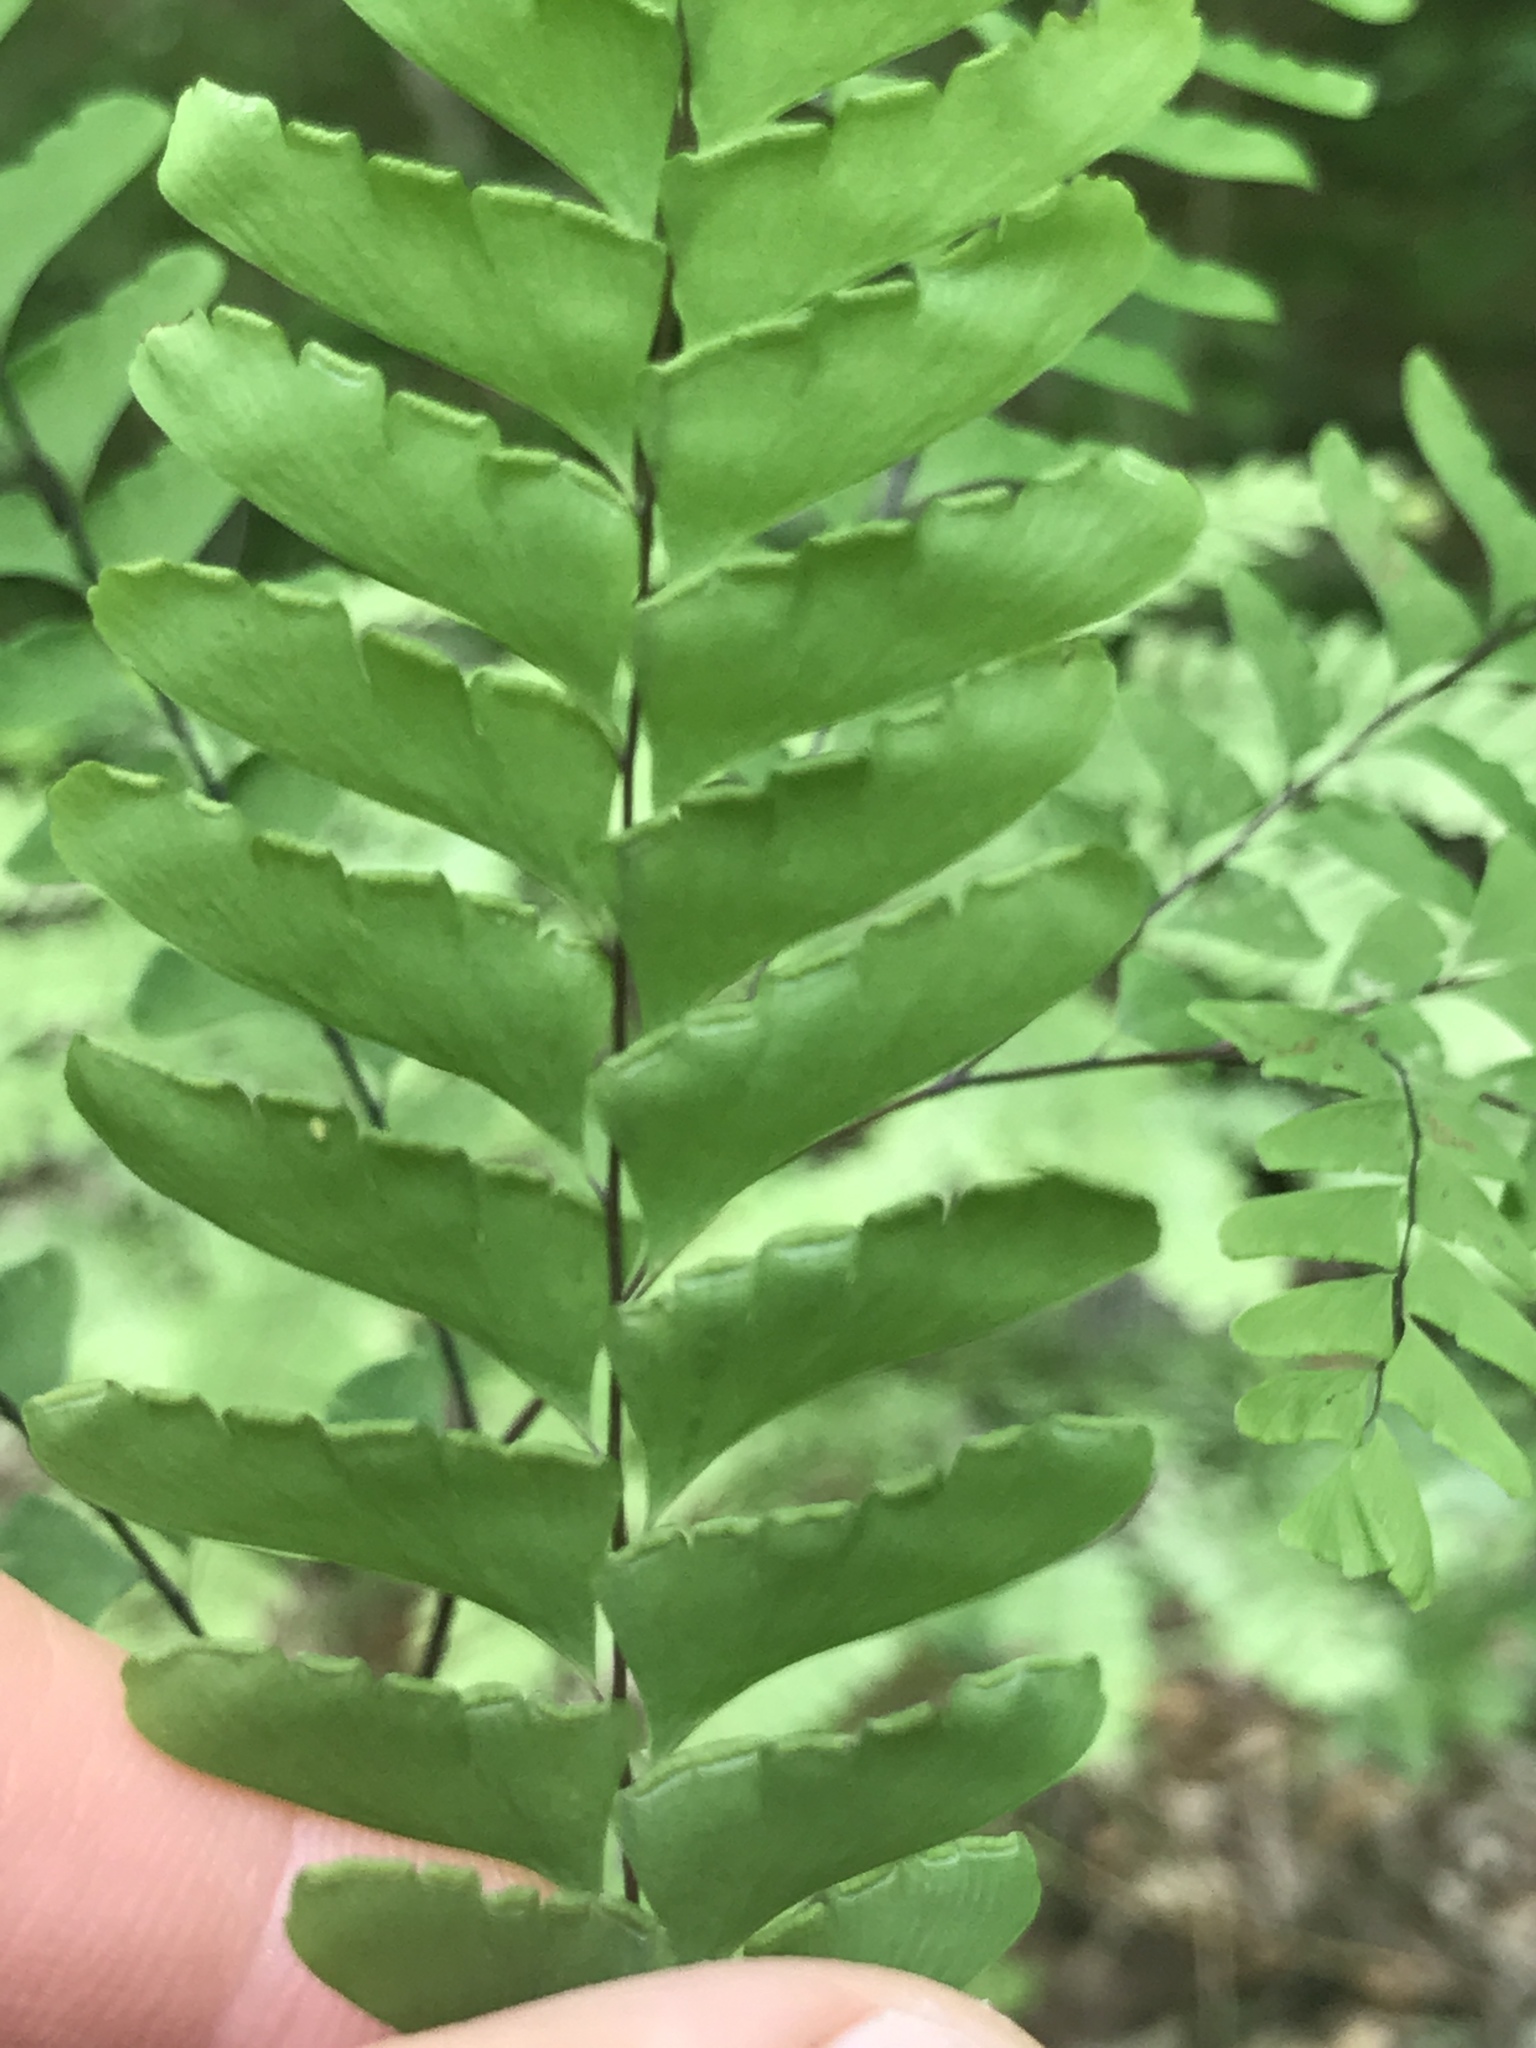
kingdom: Plantae
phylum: Tracheophyta
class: Polypodiopsida
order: Polypodiales
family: Pteridaceae
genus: Adiantum
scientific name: Adiantum pedatum
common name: Five-finger fern
